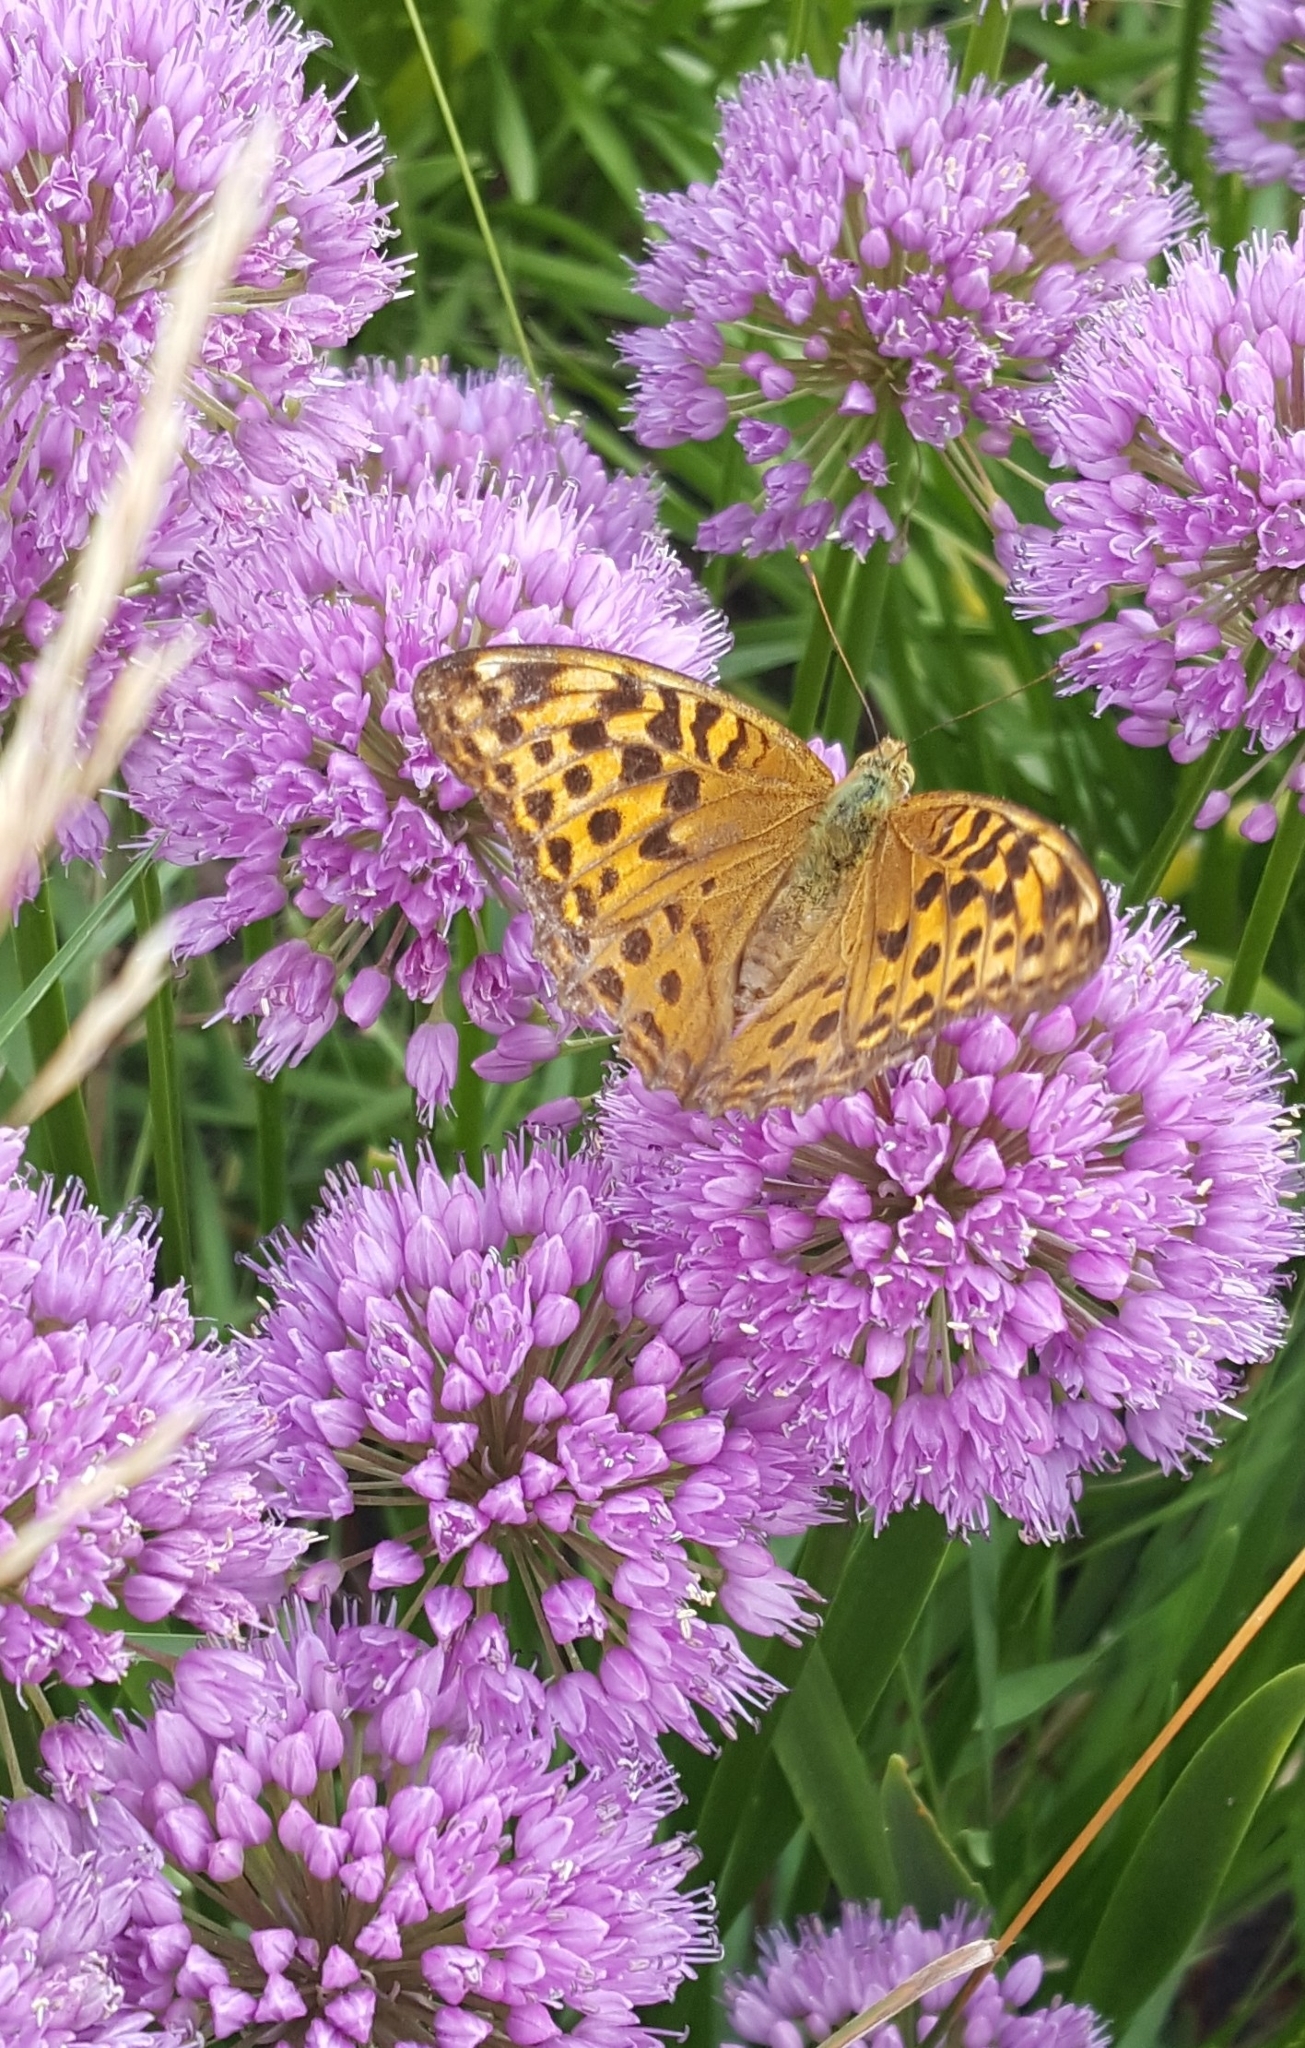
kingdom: Animalia
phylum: Arthropoda
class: Insecta
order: Lepidoptera
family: Nymphalidae
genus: Argynnis
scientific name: Argynnis paphia
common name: Silver-washed fritillary
